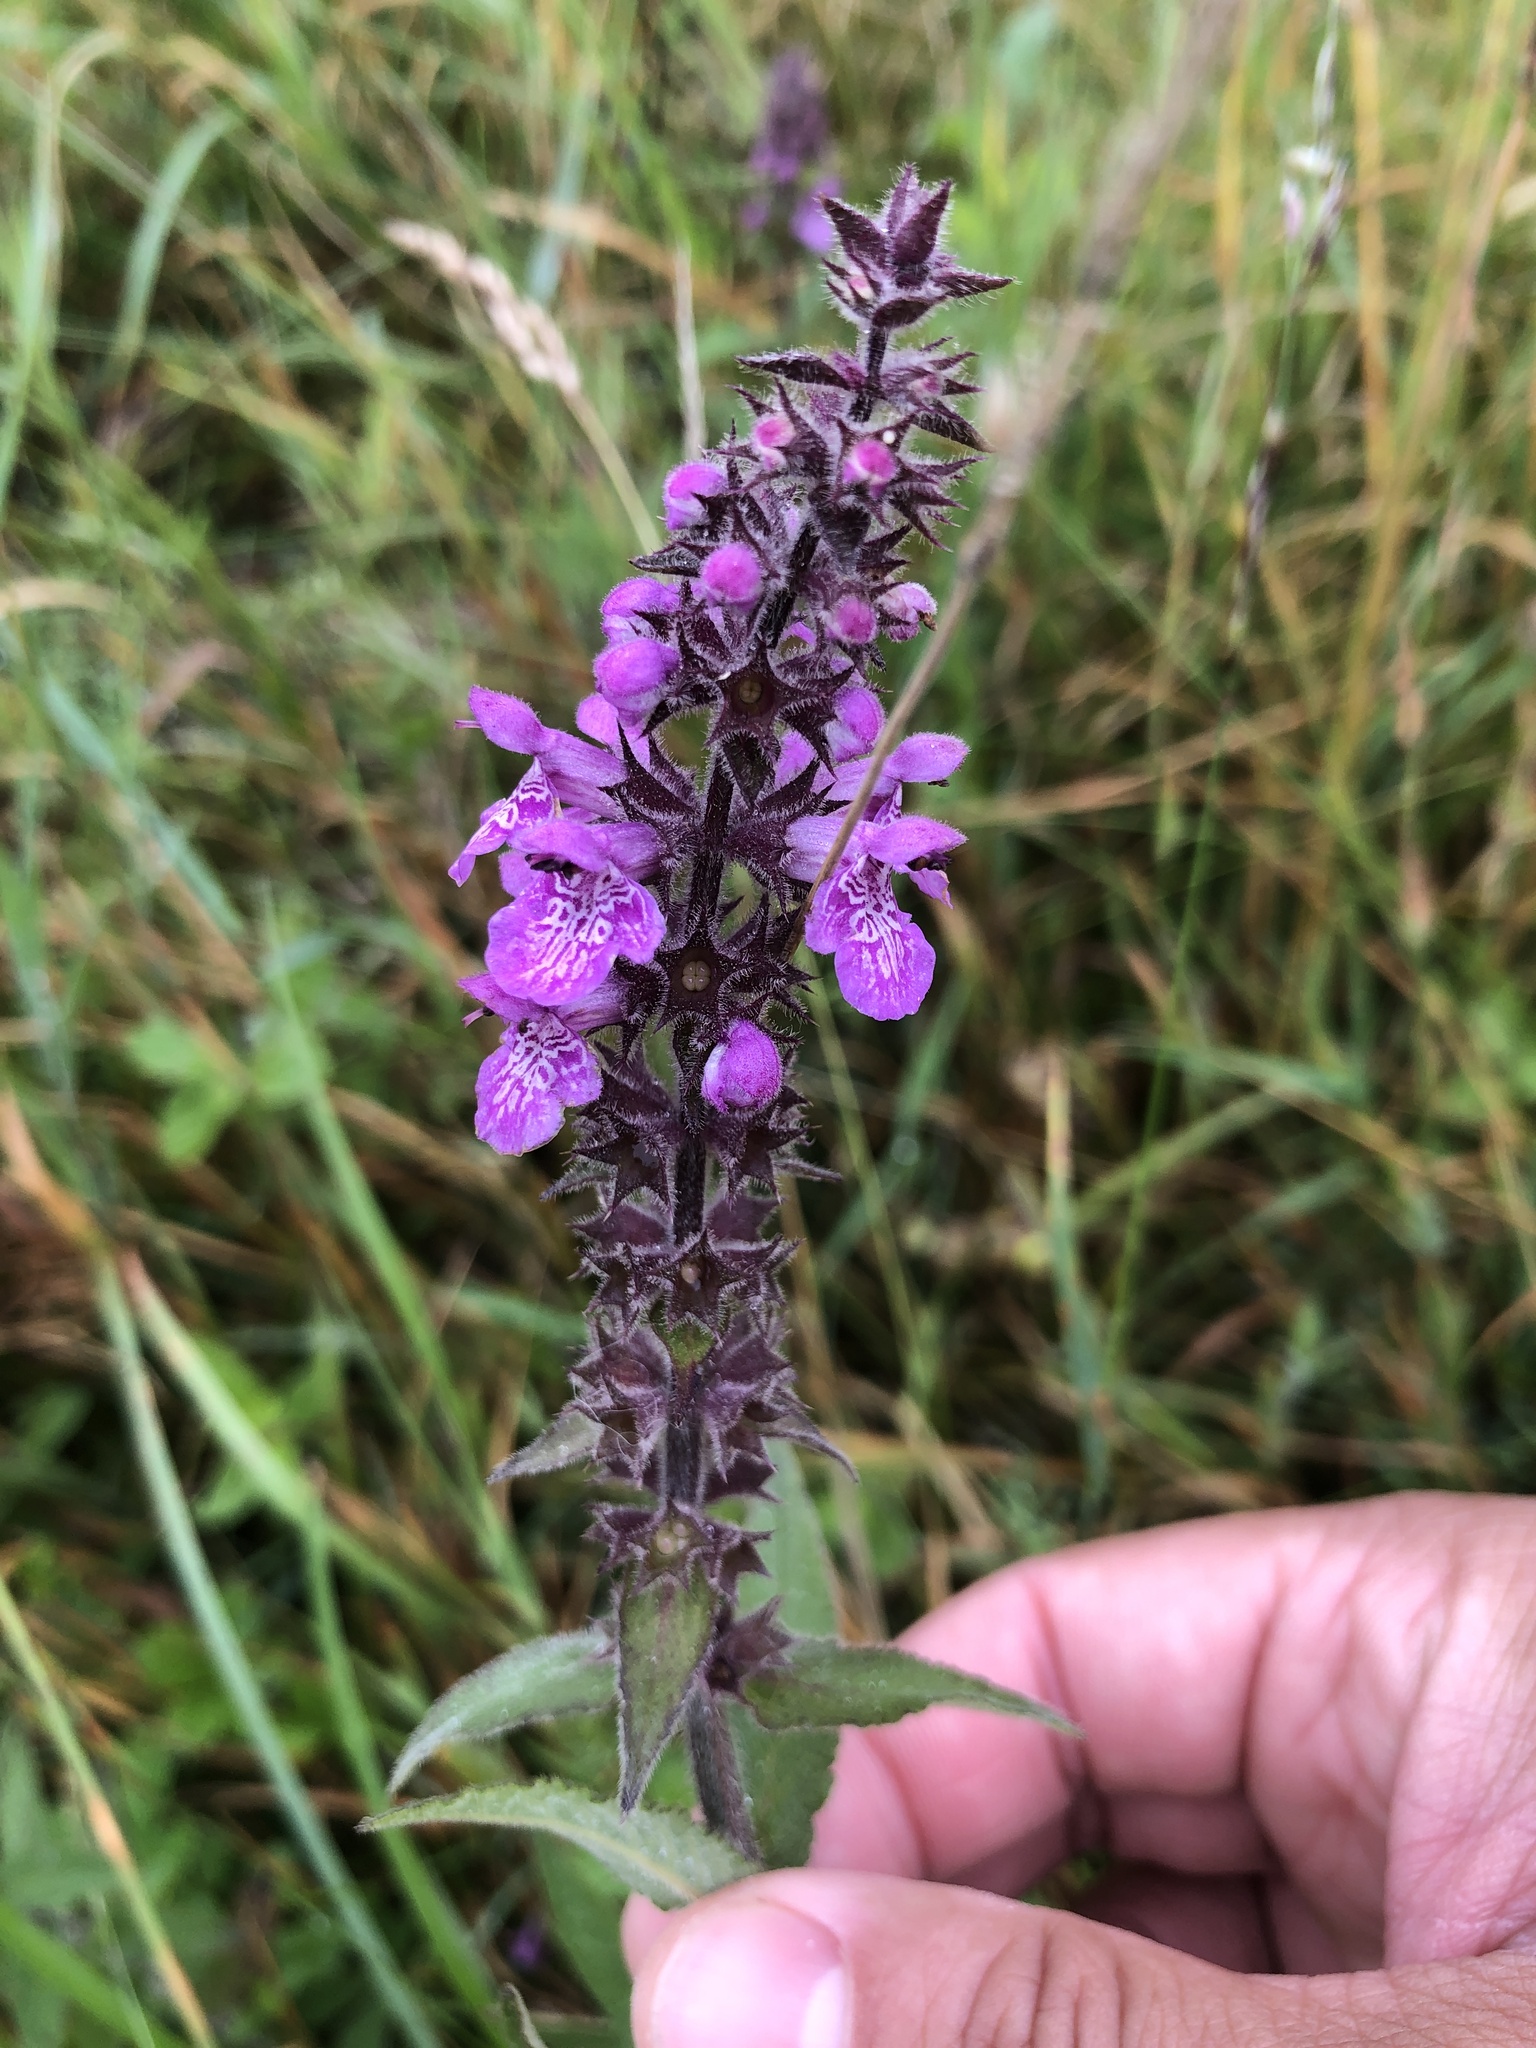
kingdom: Plantae
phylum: Tracheophyta
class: Magnoliopsida
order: Lamiales
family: Lamiaceae
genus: Stachys
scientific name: Stachys palustris
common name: Marsh woundwort
